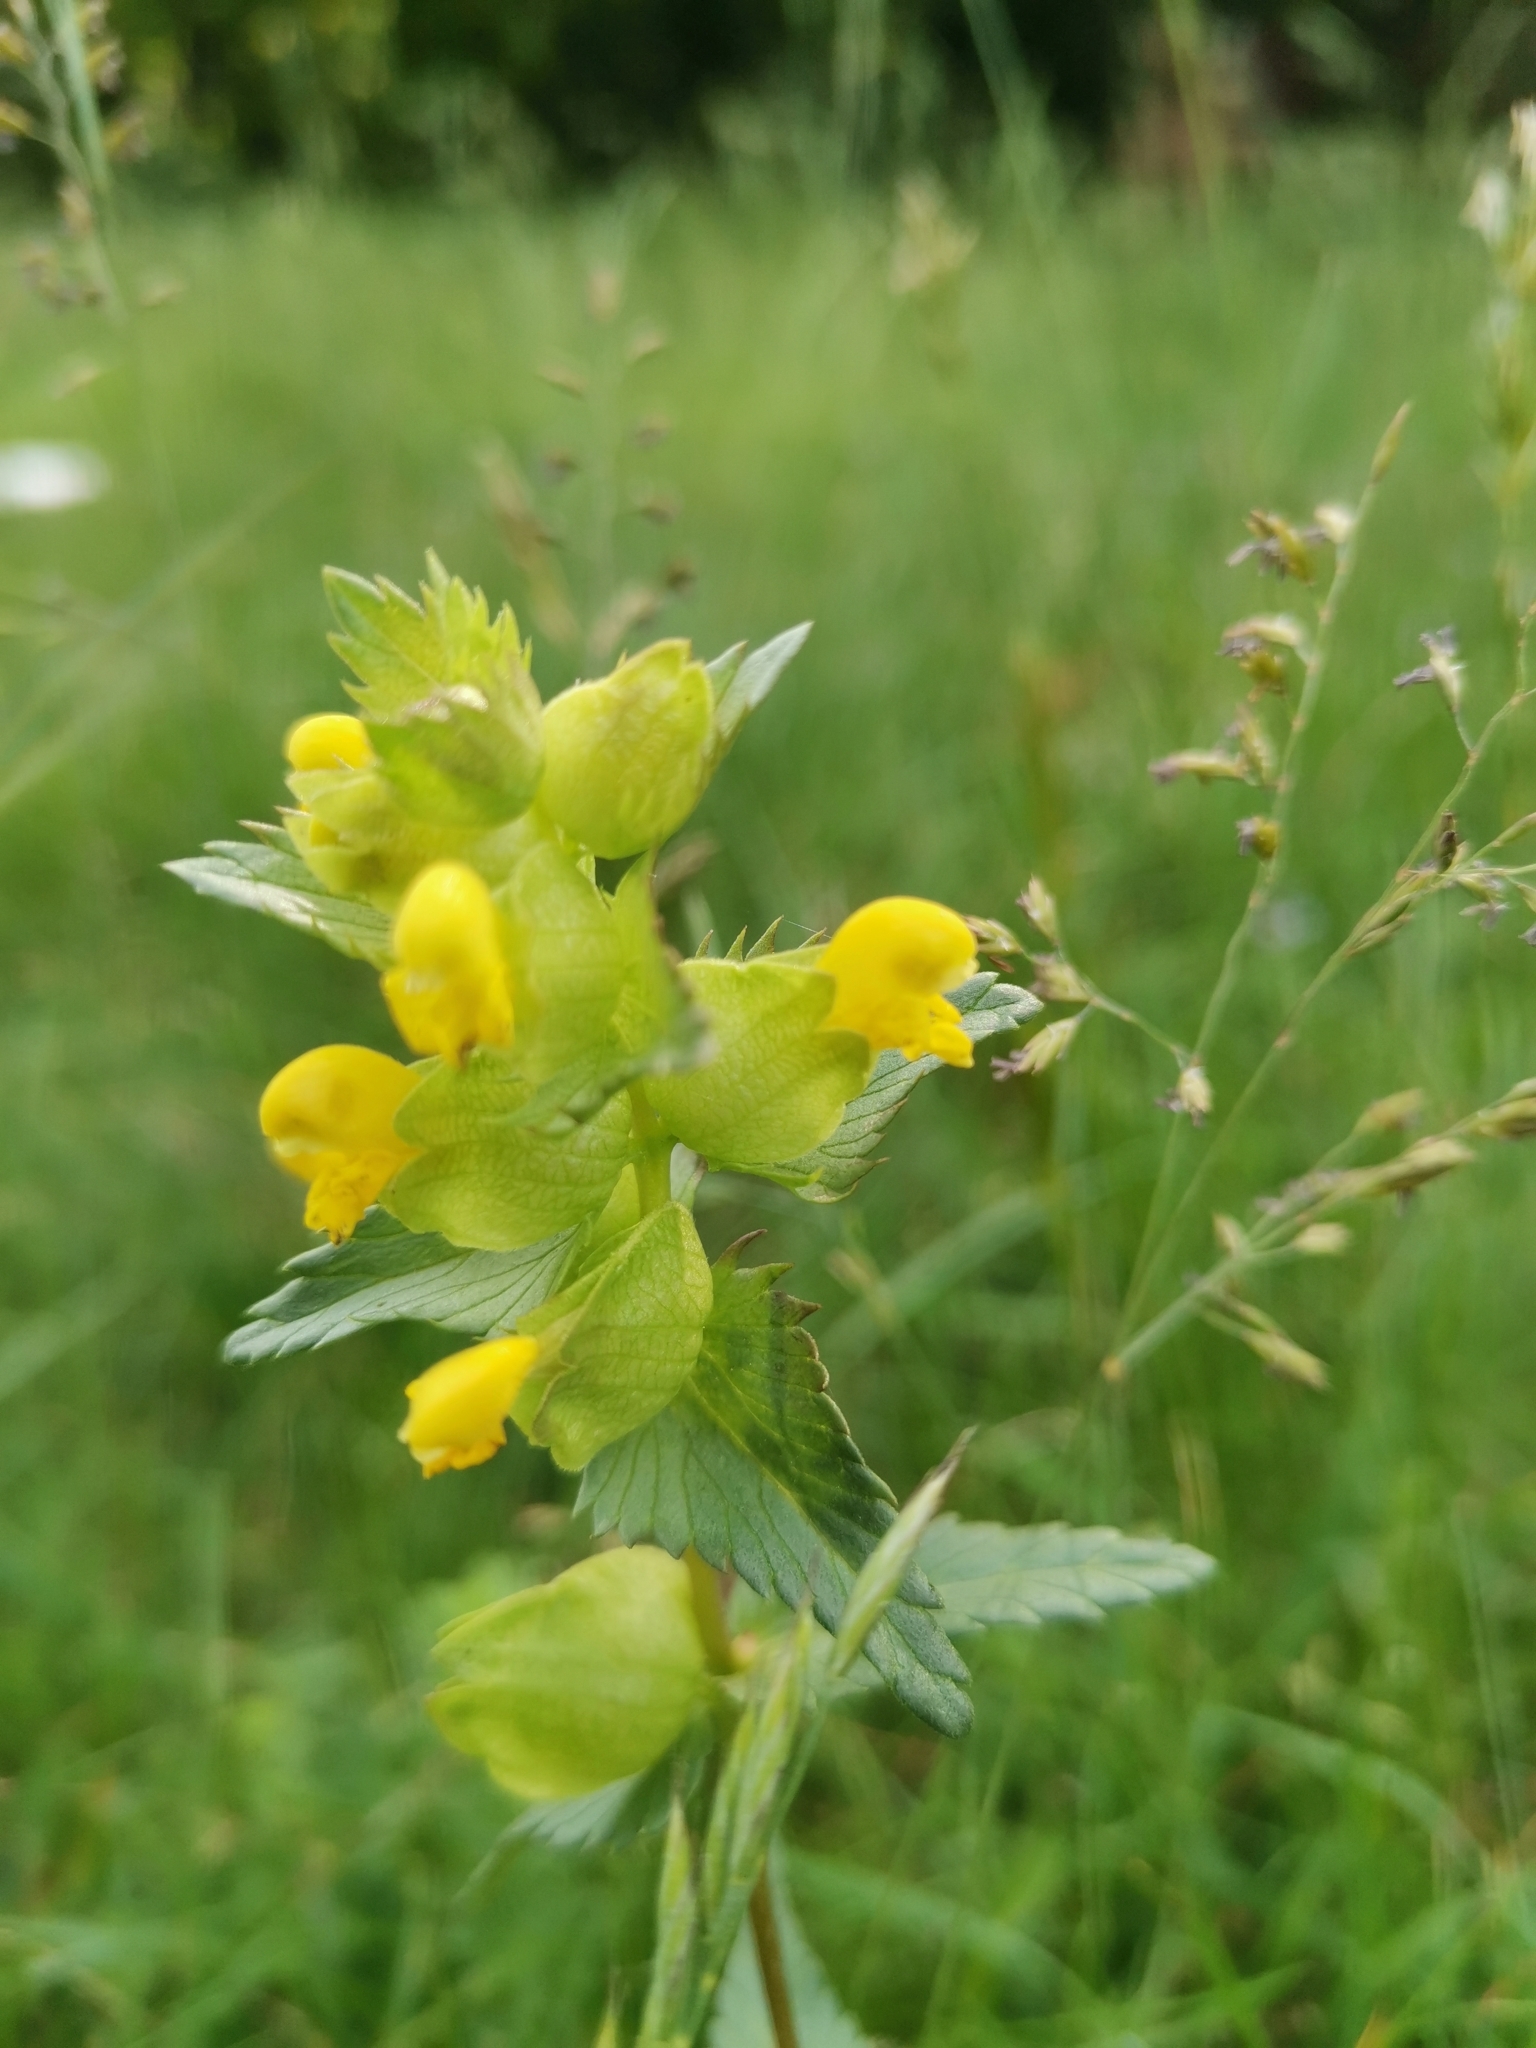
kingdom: Plantae
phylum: Tracheophyta
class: Magnoliopsida
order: Lamiales
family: Orobanchaceae
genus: Rhinanthus
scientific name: Rhinanthus minor
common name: Yellow-rattle
